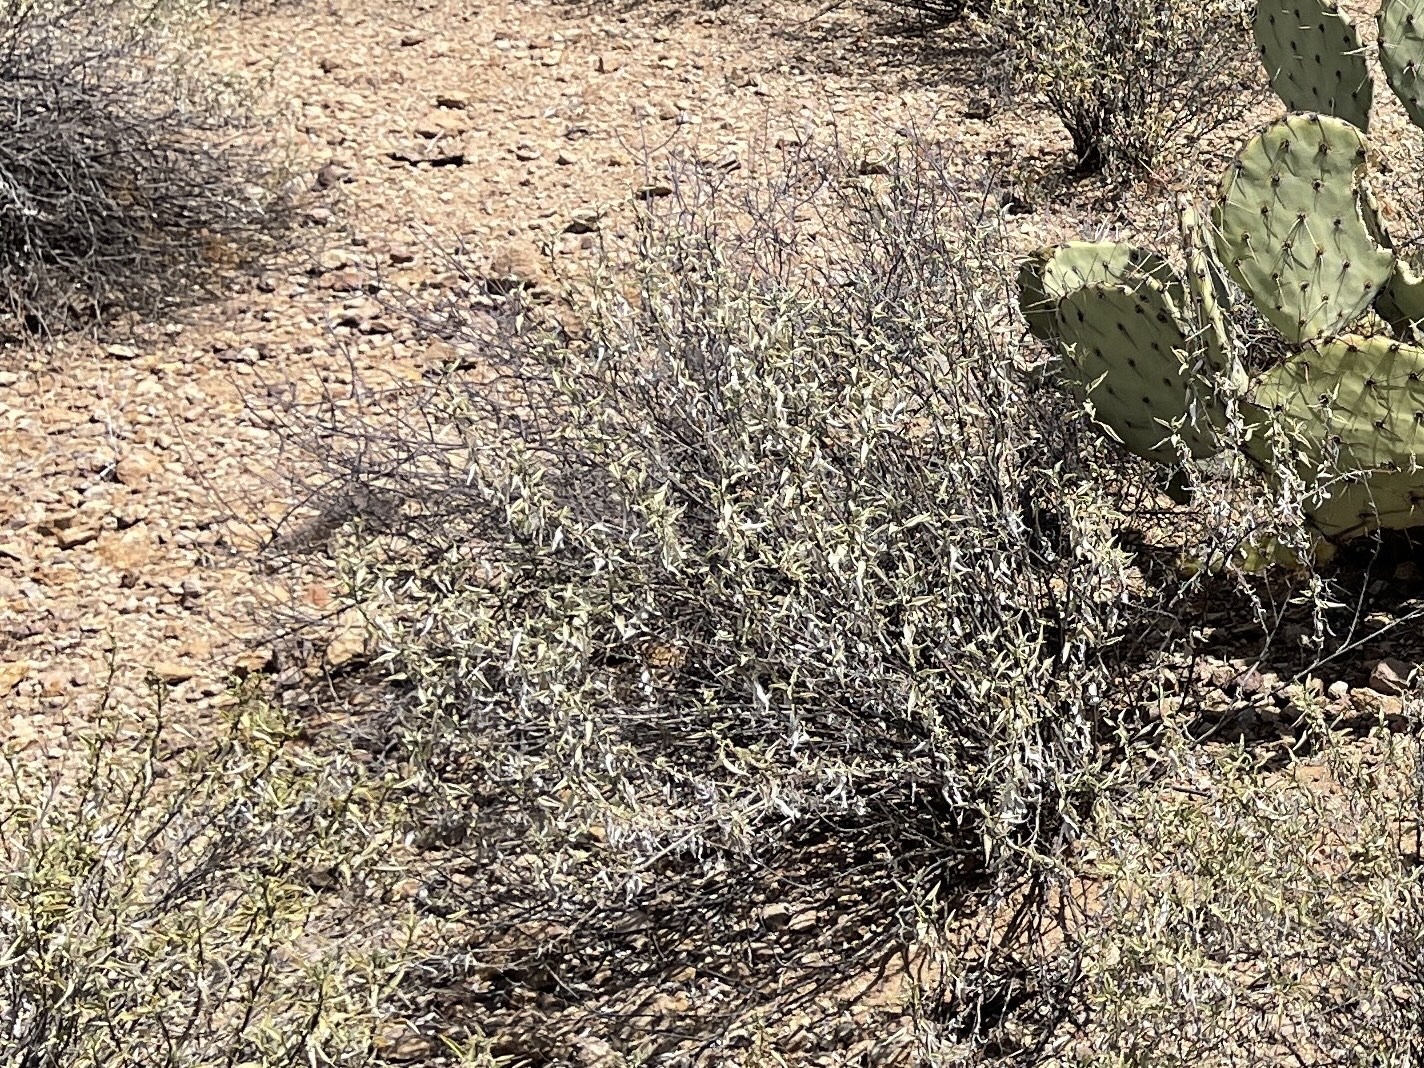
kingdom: Plantae
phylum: Tracheophyta
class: Magnoliopsida
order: Asterales
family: Asteraceae
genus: Ambrosia
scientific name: Ambrosia deltoidea
